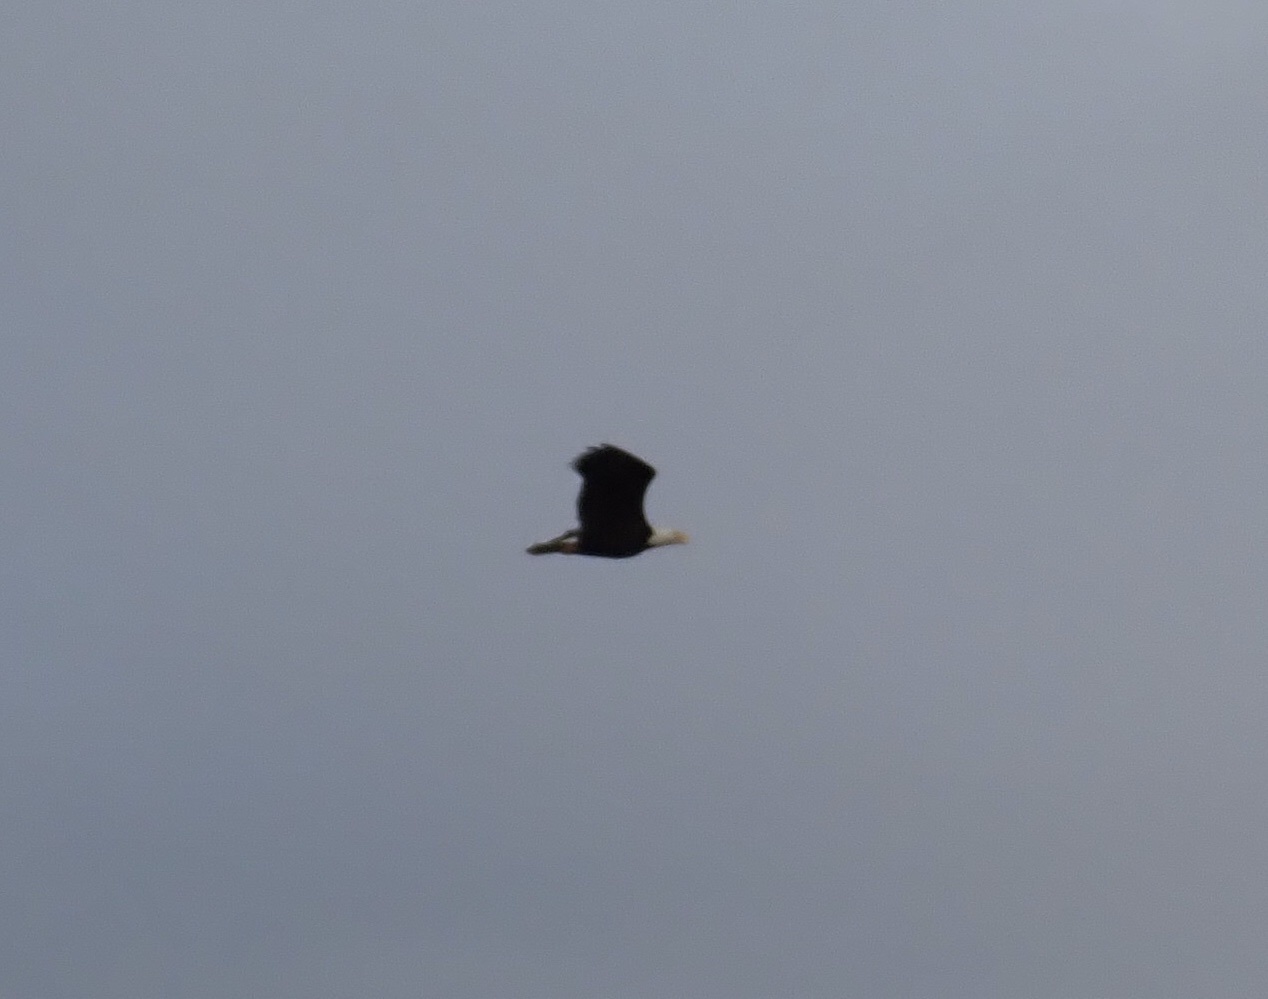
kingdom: Animalia
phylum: Chordata
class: Aves
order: Accipitriformes
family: Accipitridae
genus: Haliaeetus
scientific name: Haliaeetus leucocephalus
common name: Bald eagle
